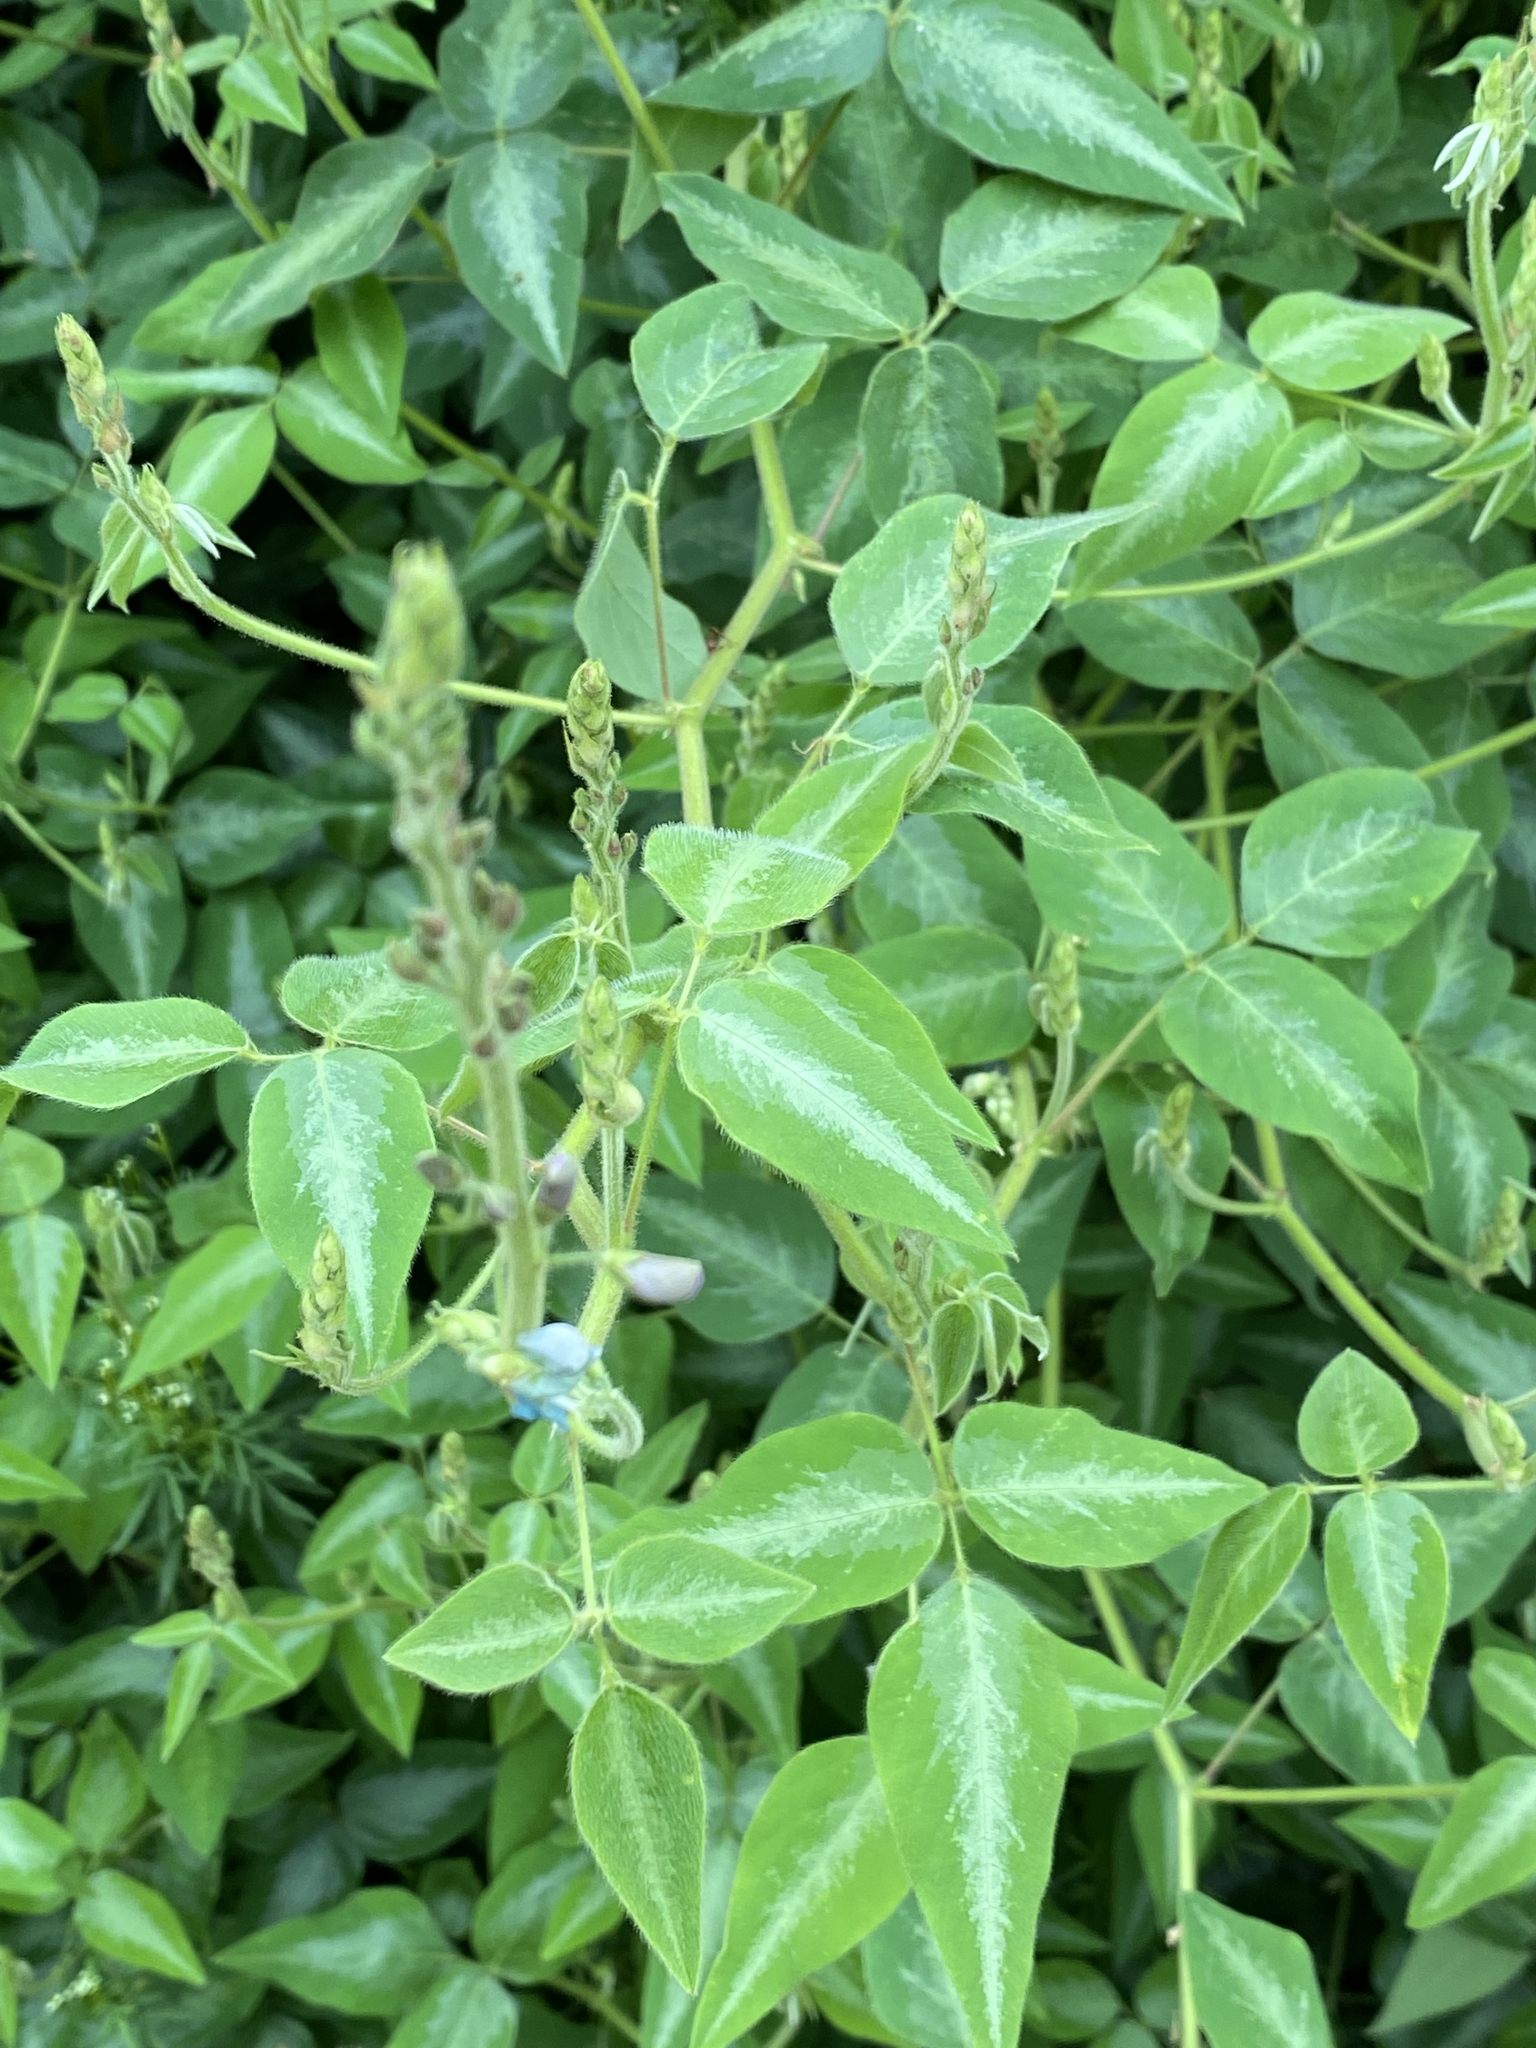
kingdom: Plantae
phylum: Tracheophyta
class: Magnoliopsida
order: Fabales
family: Fabaceae
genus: Desmodium
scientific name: Desmodium uncinatum
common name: Silverleaf desmodium
